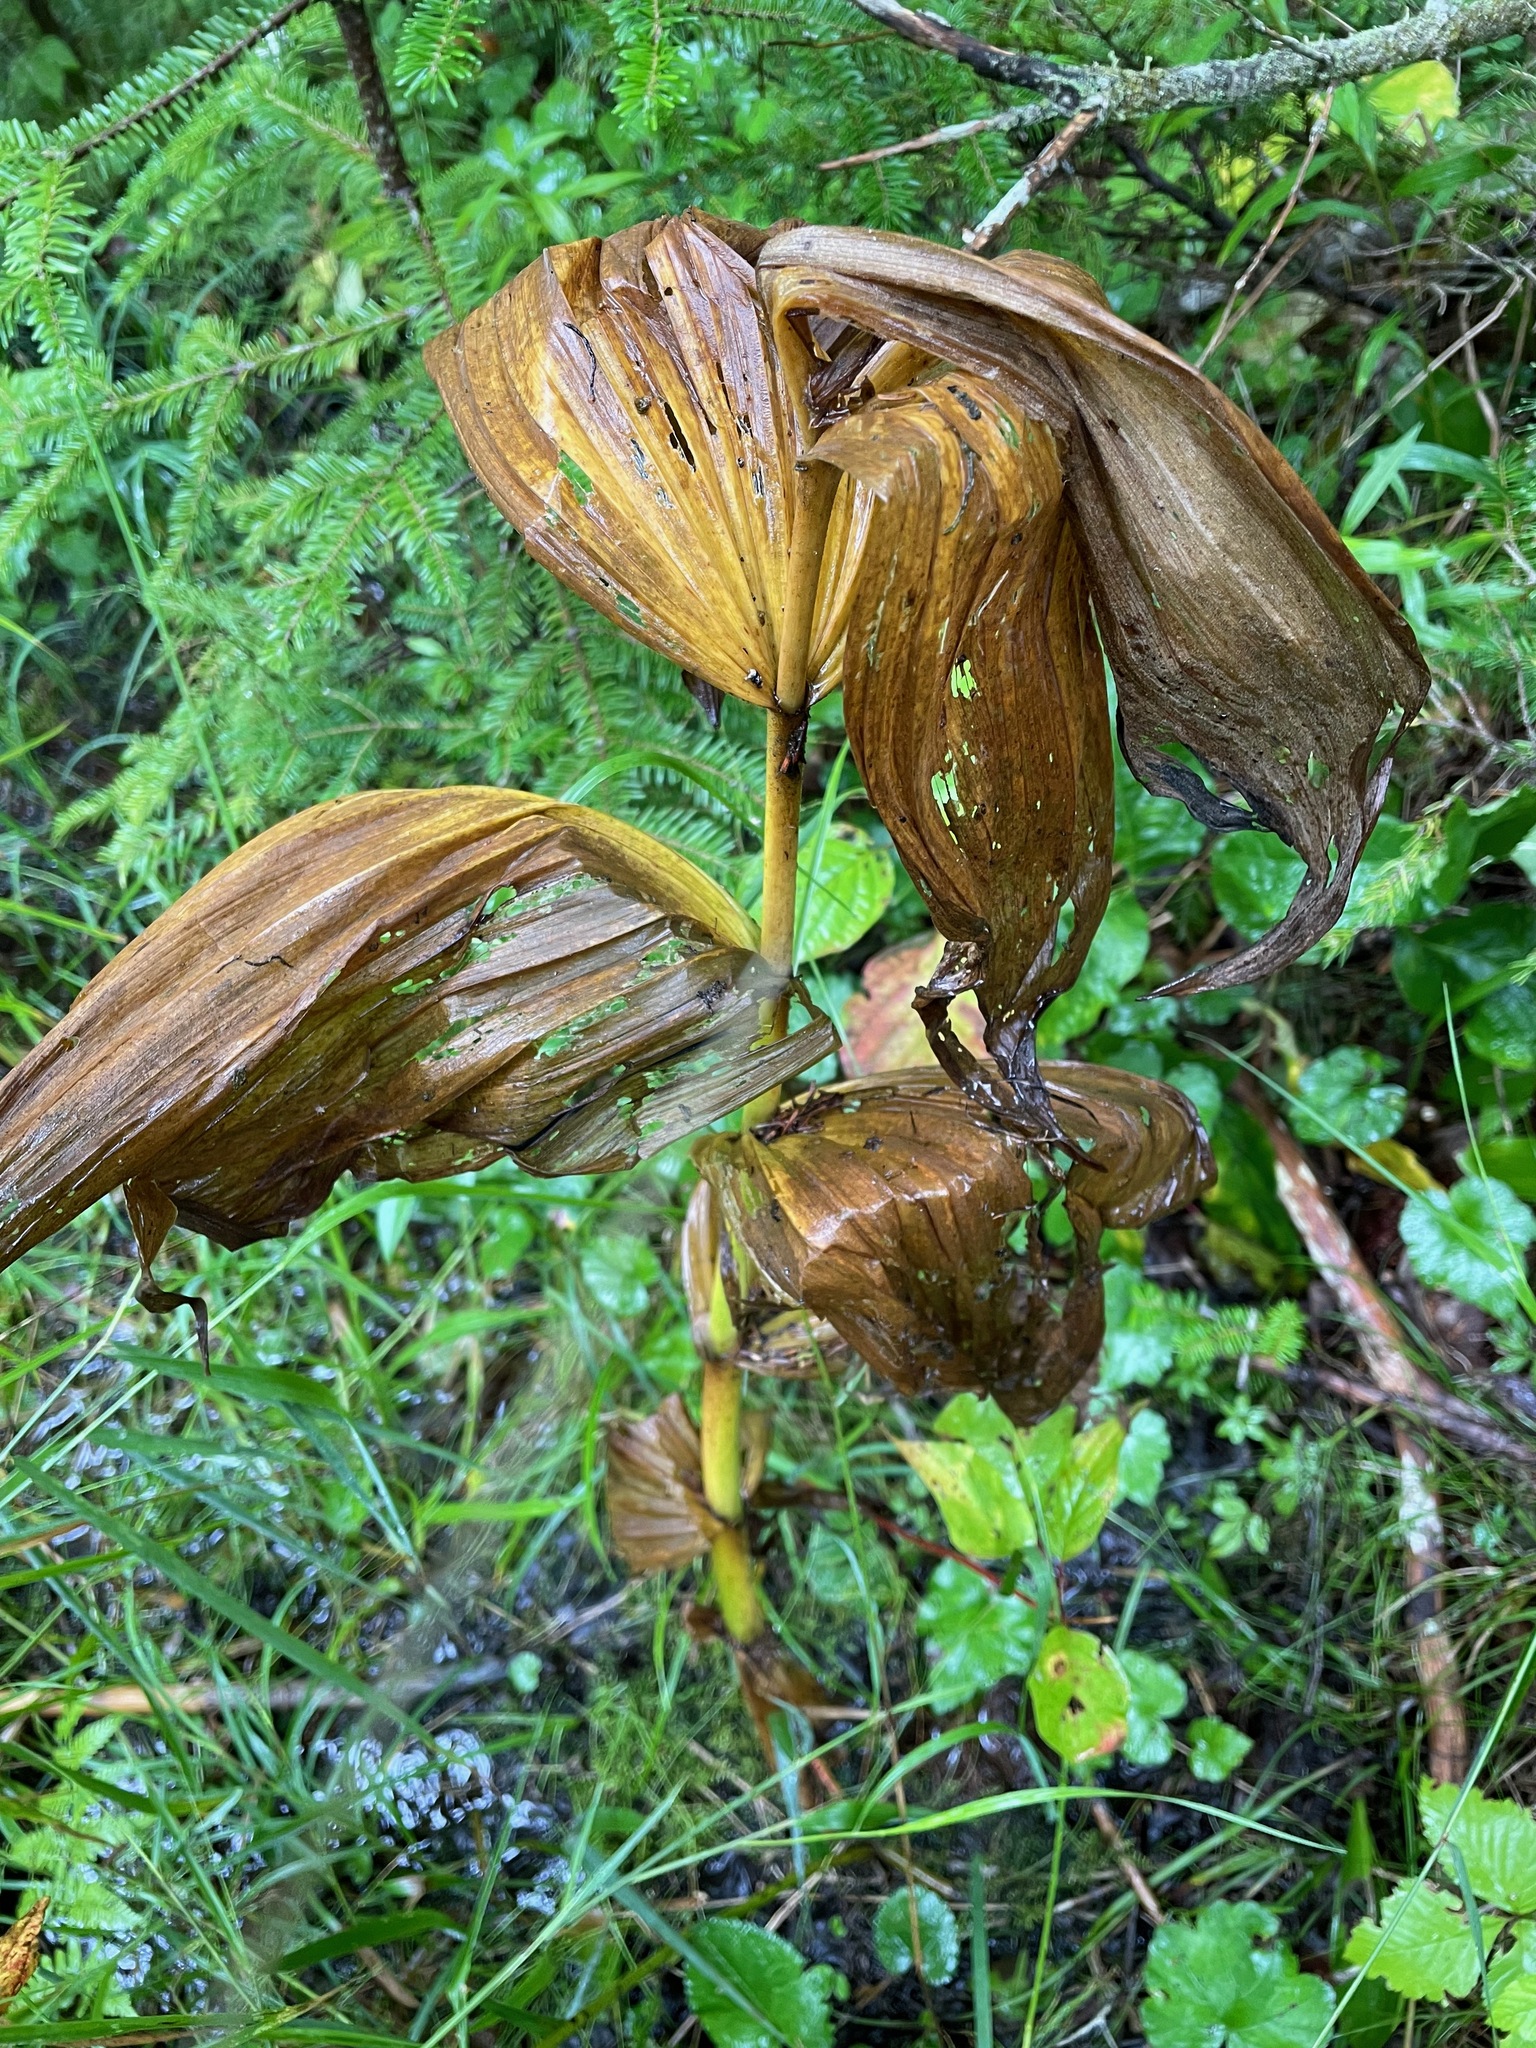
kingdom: Plantae
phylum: Tracheophyta
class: Liliopsida
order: Liliales
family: Melanthiaceae
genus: Veratrum
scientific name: Veratrum viride
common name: American false hellebore
